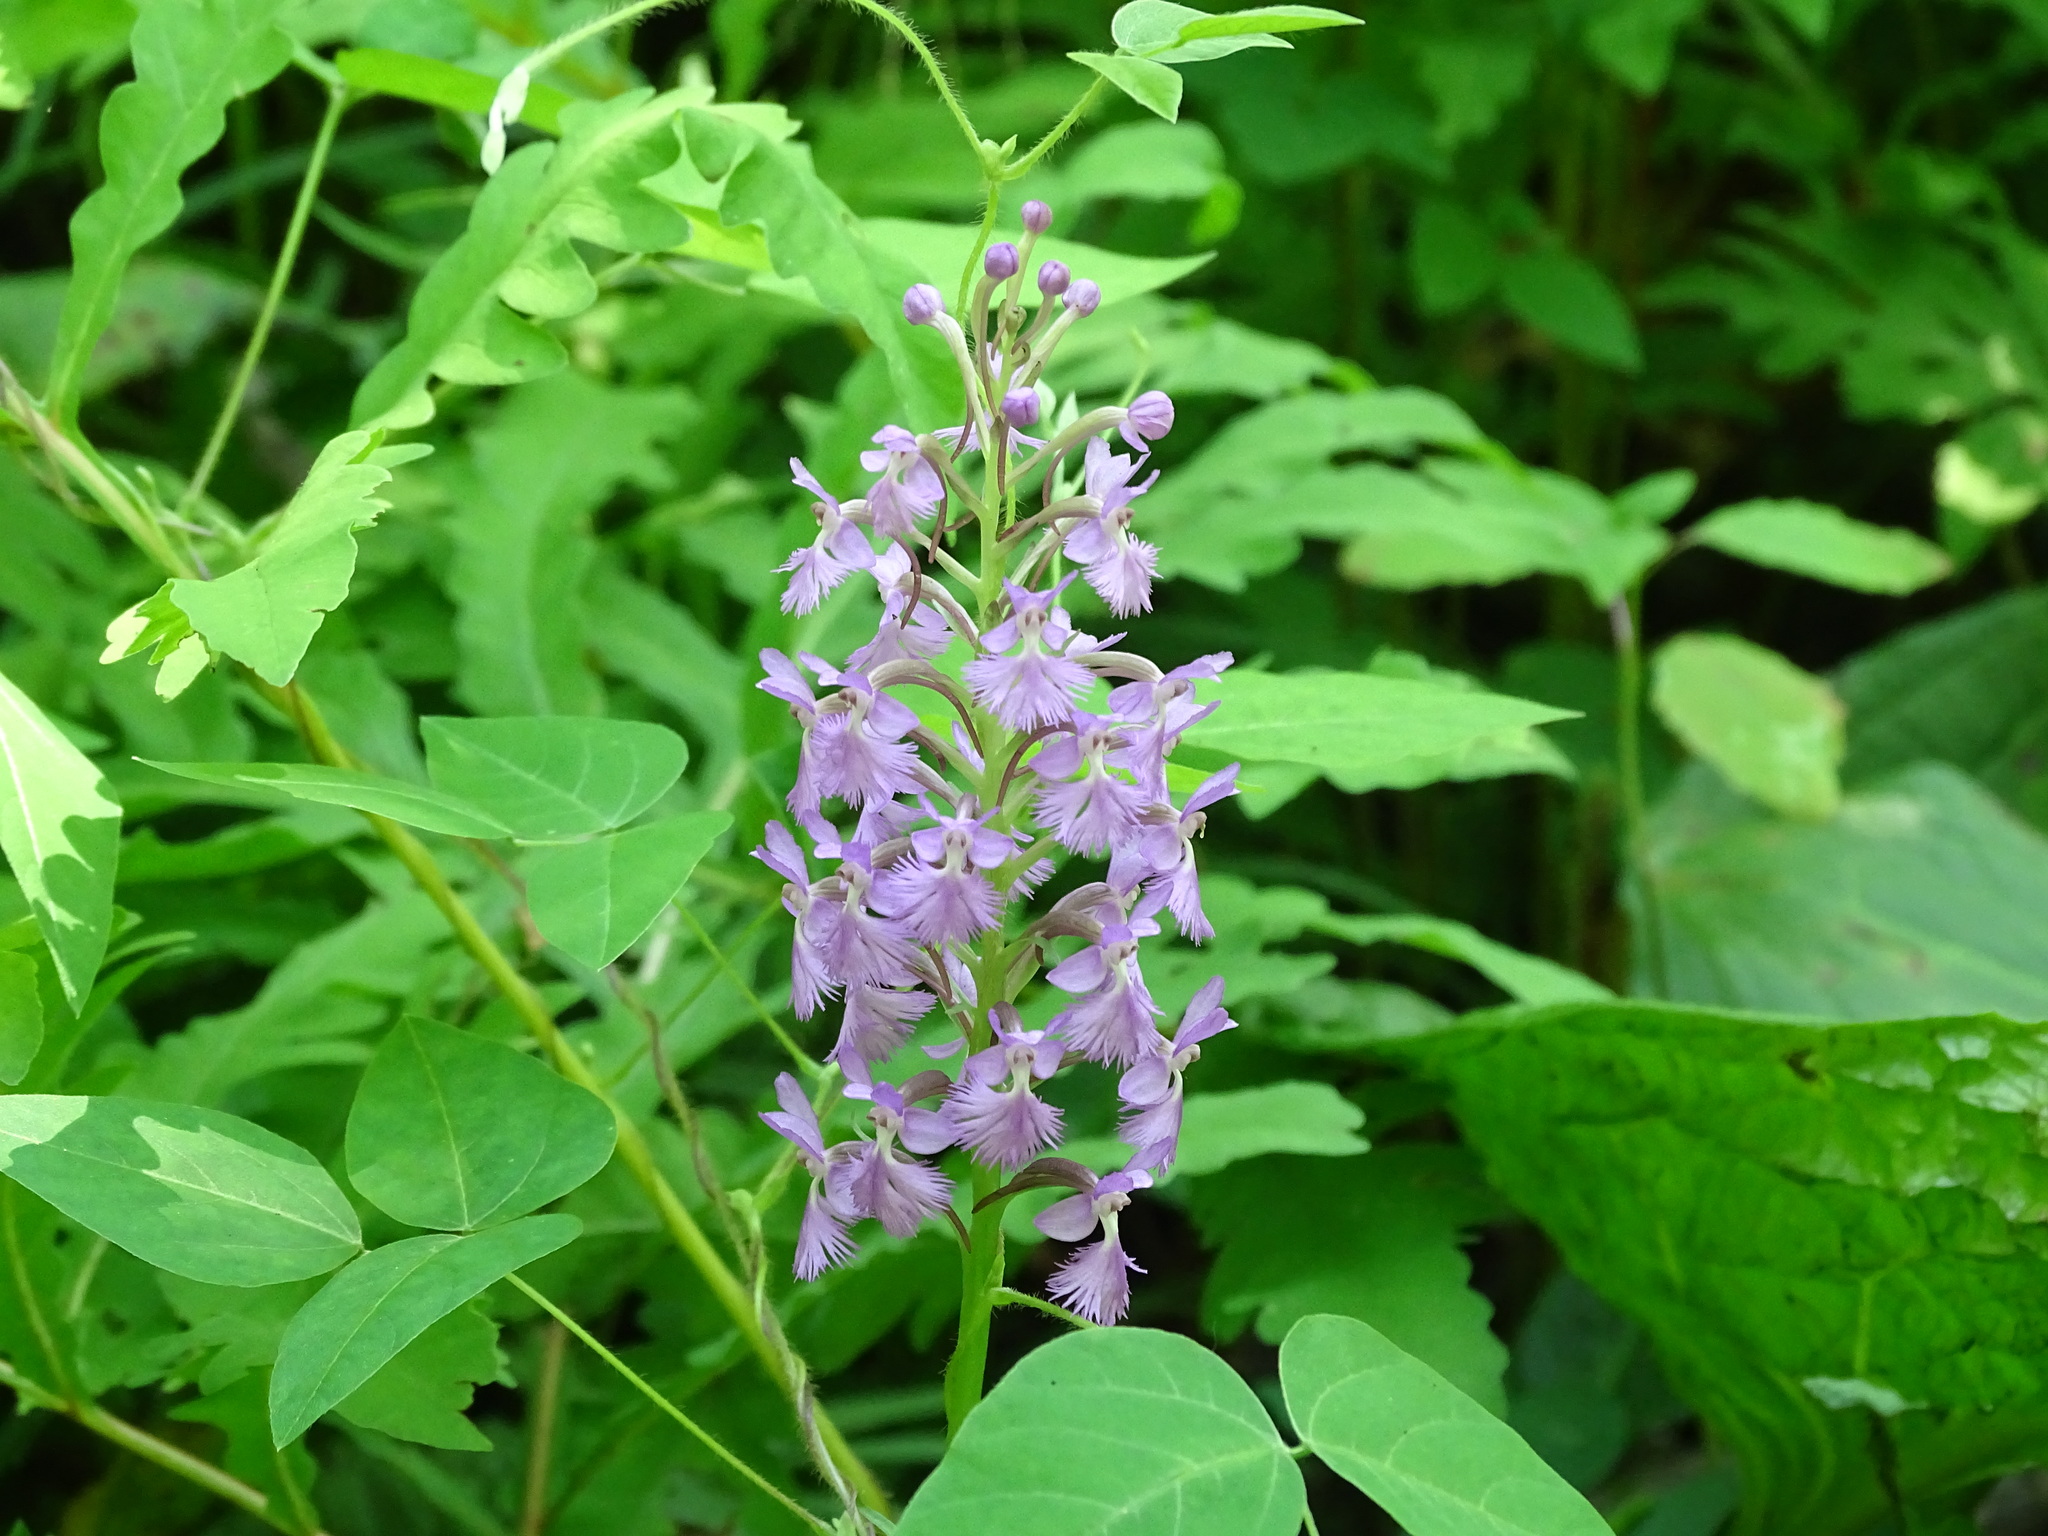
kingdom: Plantae
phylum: Tracheophyta
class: Liliopsida
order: Asparagales
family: Orchidaceae
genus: Platanthera
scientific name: Platanthera psycodes
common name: Lesser purple fringed orchid
